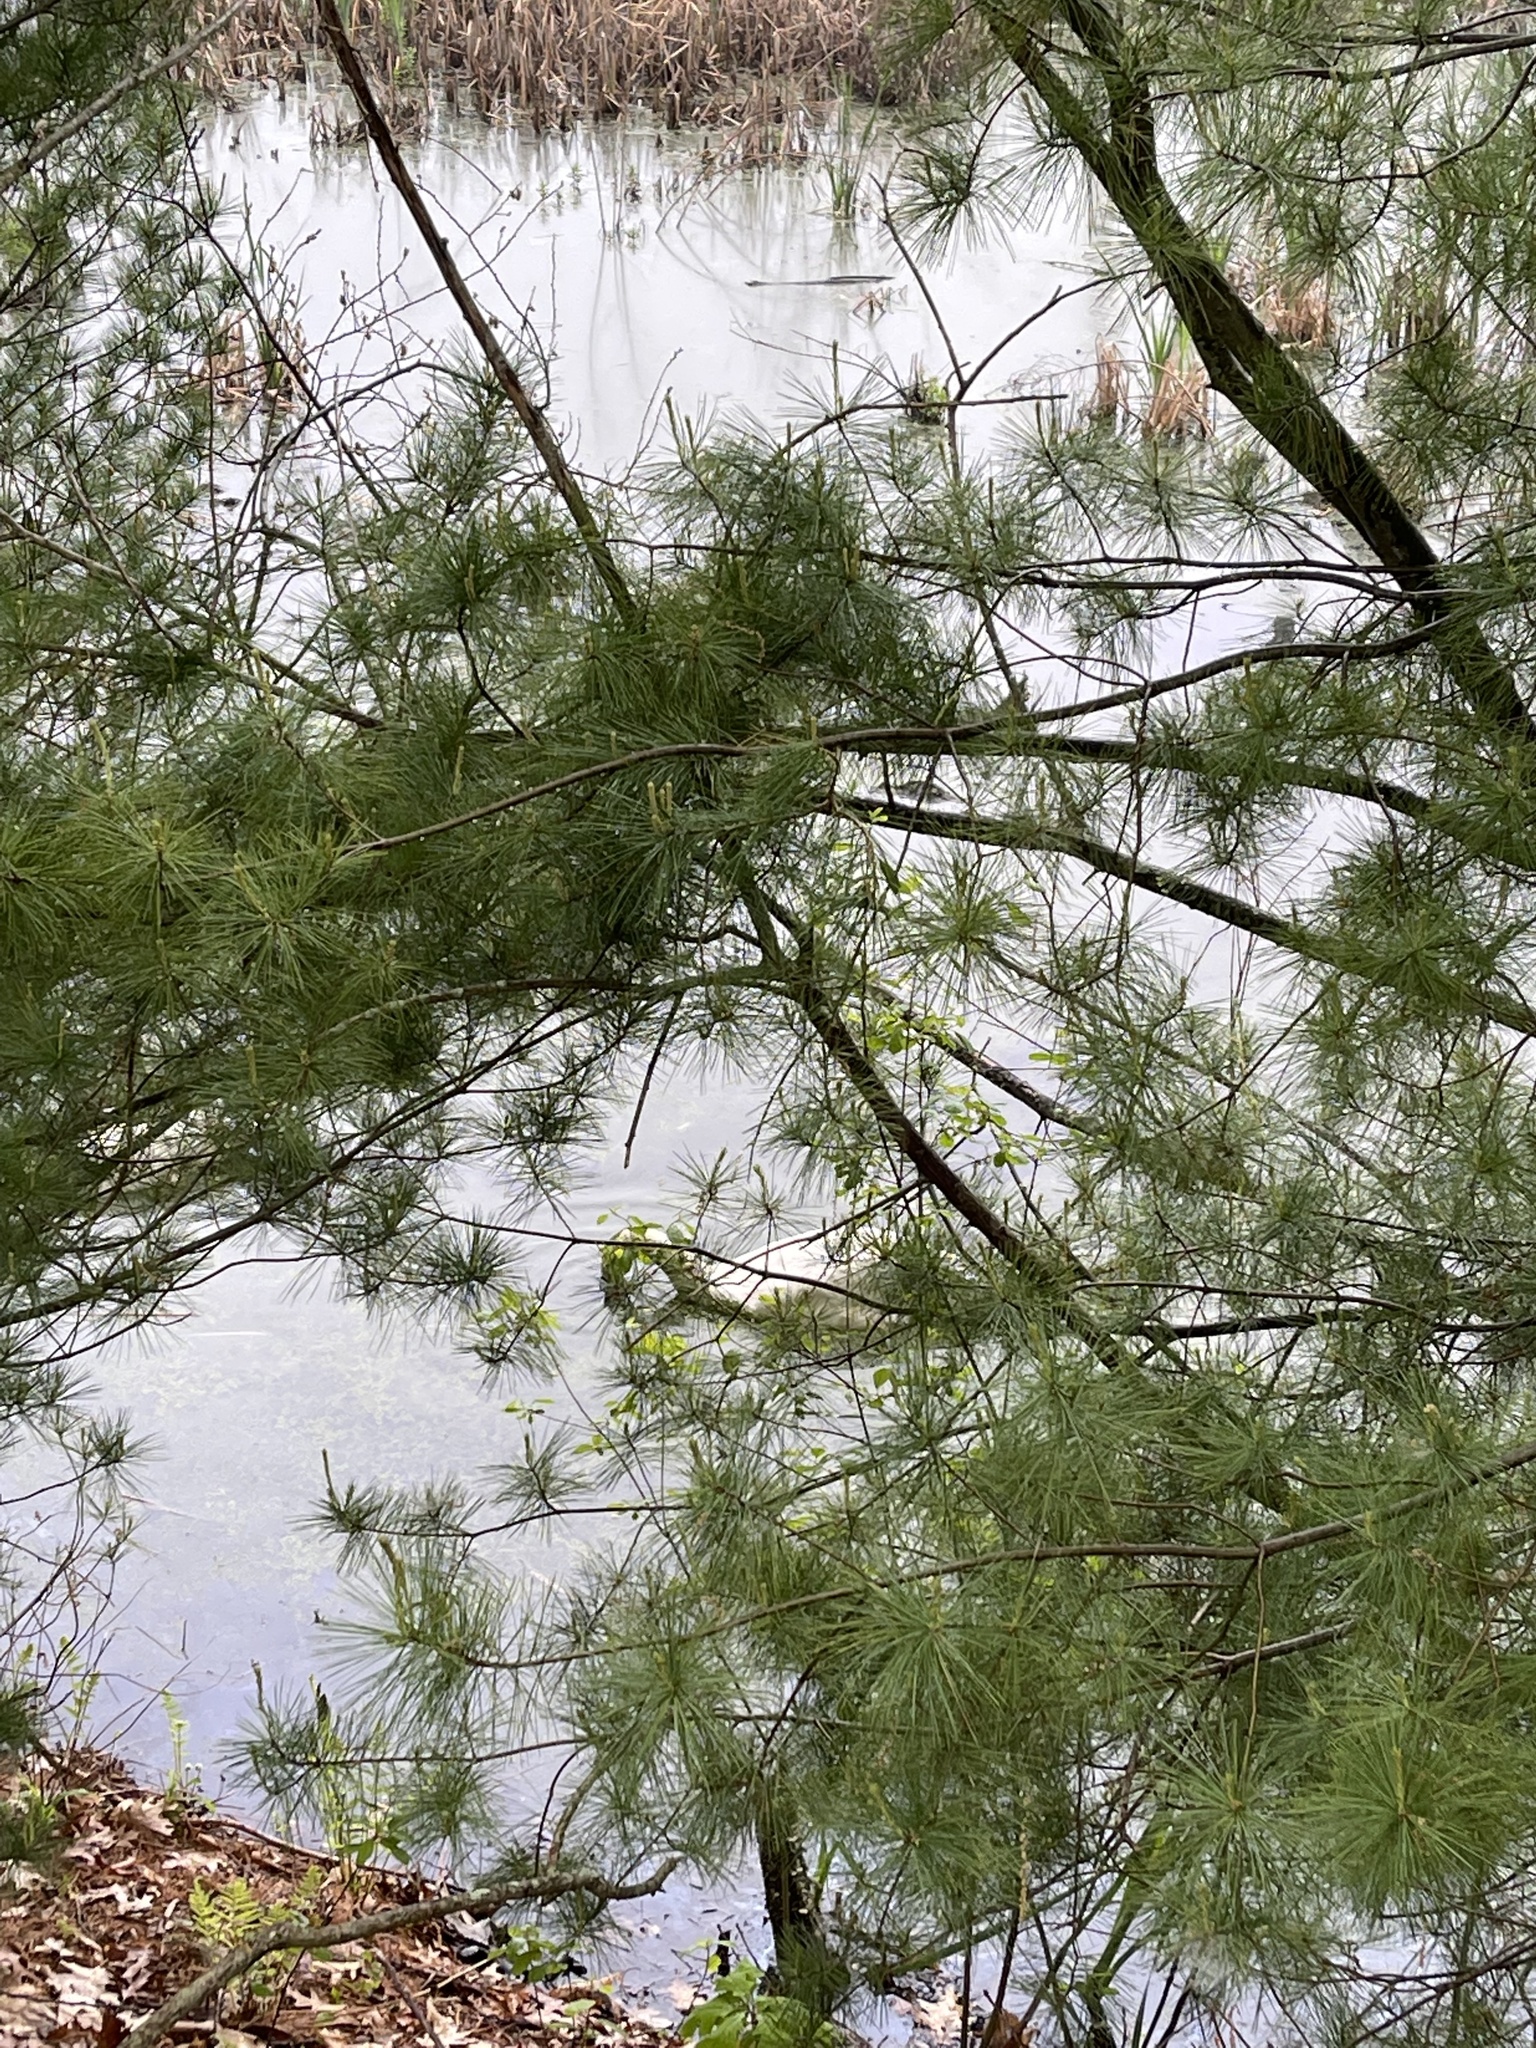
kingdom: Animalia
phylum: Chordata
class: Aves
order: Anseriformes
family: Anatidae
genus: Cygnus
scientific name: Cygnus olor
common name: Mute swan
